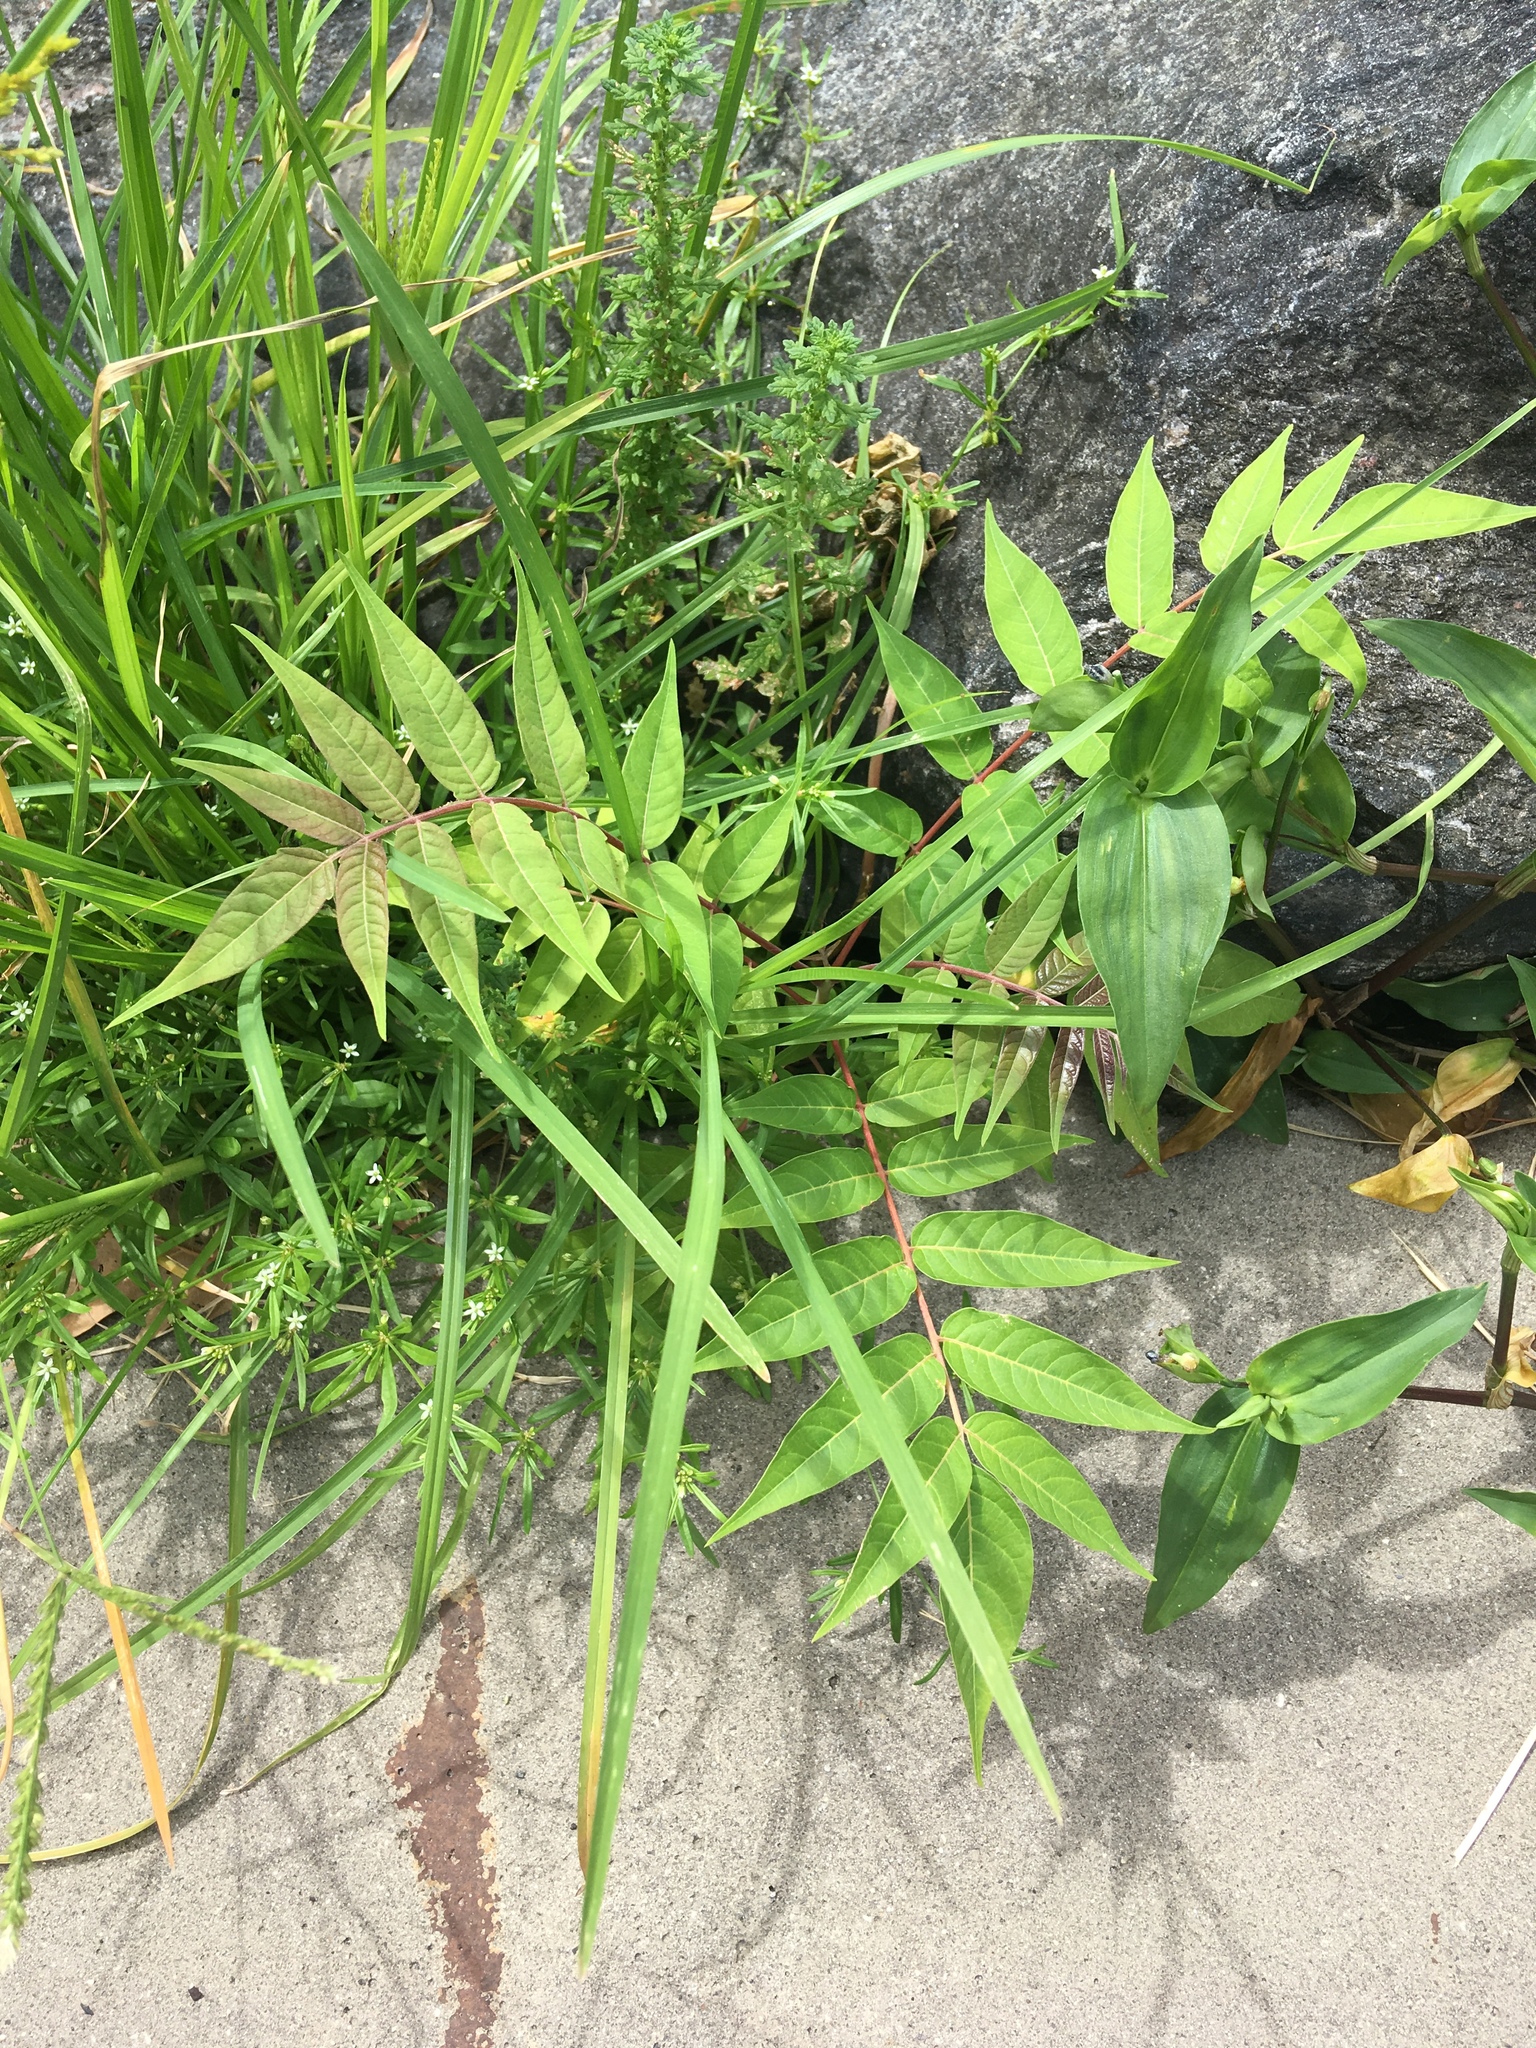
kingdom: Plantae
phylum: Tracheophyta
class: Magnoliopsida
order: Sapindales
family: Simaroubaceae
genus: Ailanthus
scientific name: Ailanthus altissima
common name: Tree-of-heaven
